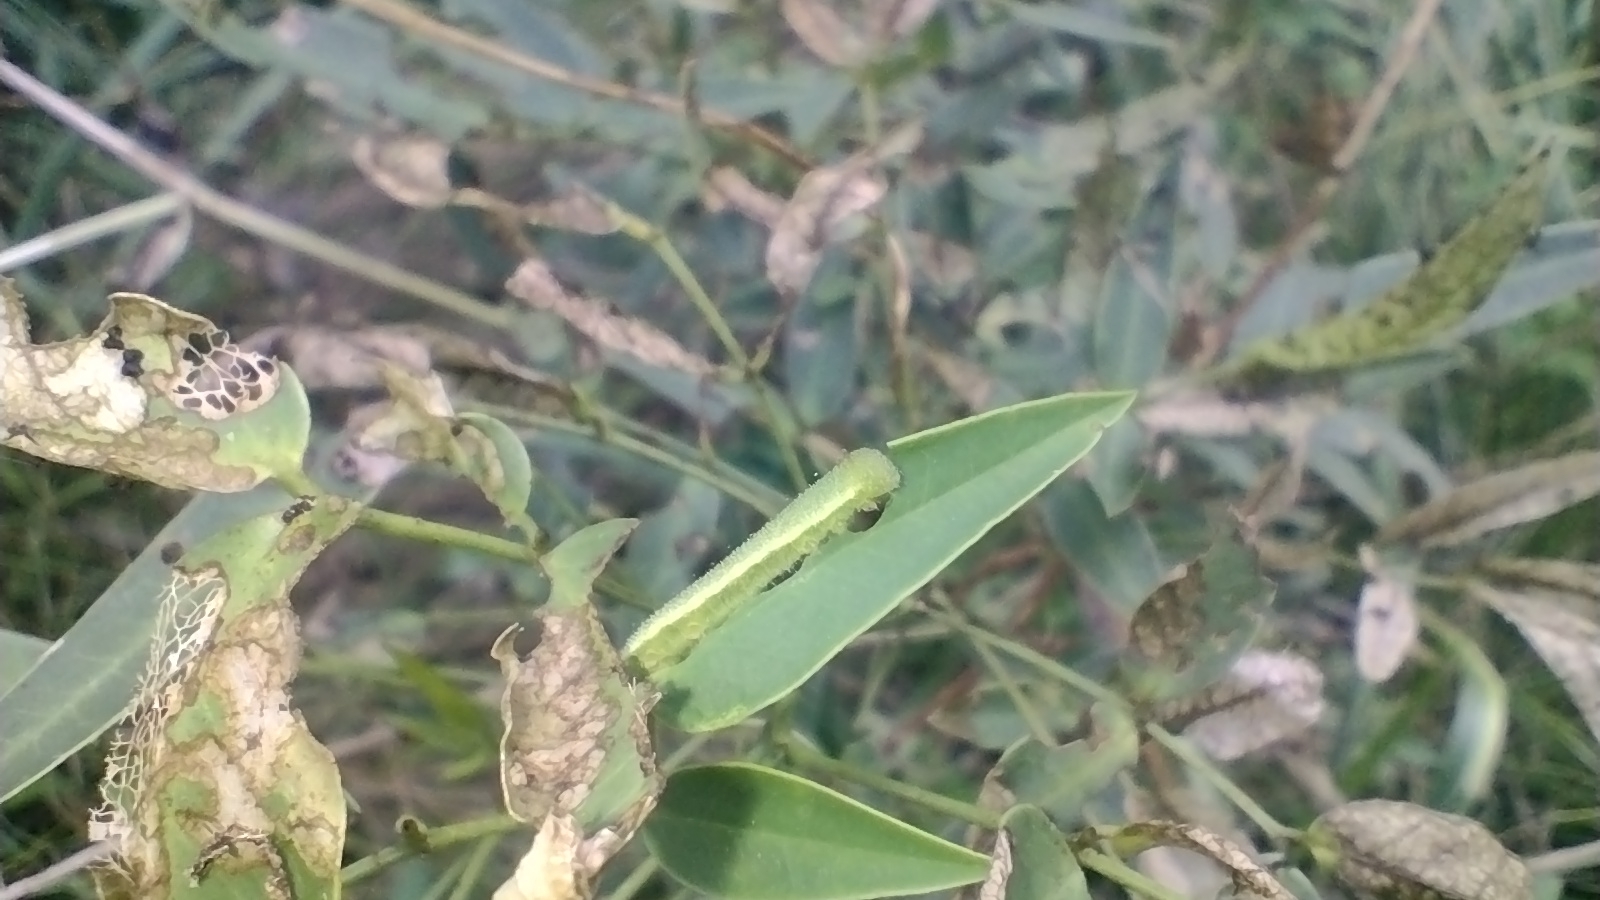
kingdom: Animalia
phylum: Arthropoda
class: Insecta
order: Lepidoptera
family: Pieridae
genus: Teriocolias
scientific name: Teriocolias
